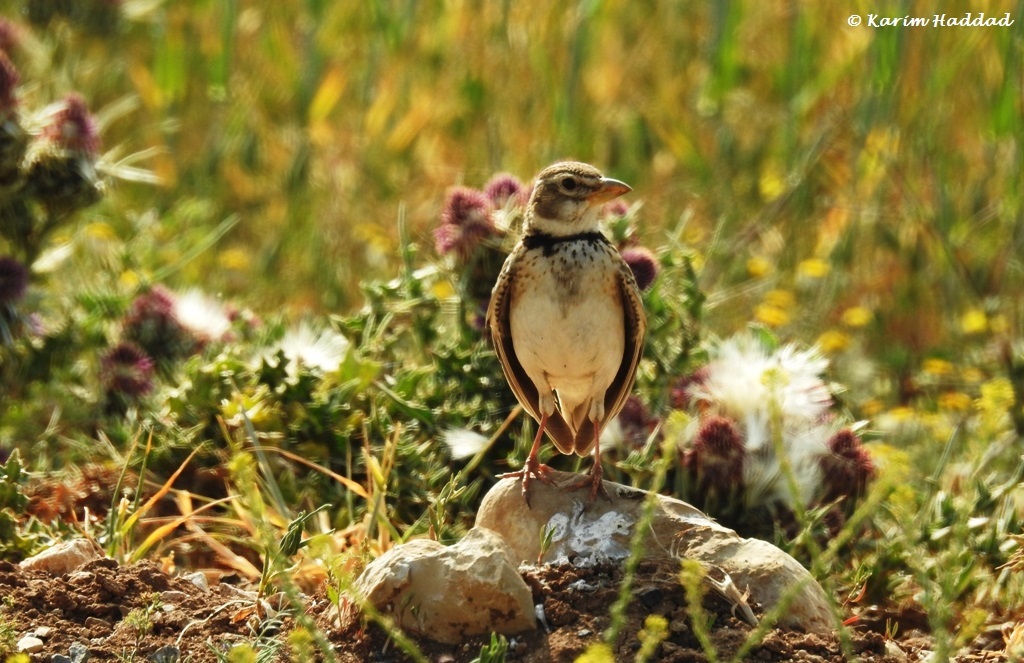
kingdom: Animalia
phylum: Chordata
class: Aves
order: Passeriformes
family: Alaudidae
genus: Melanocorypha
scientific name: Melanocorypha calandra
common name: Calandra lark
